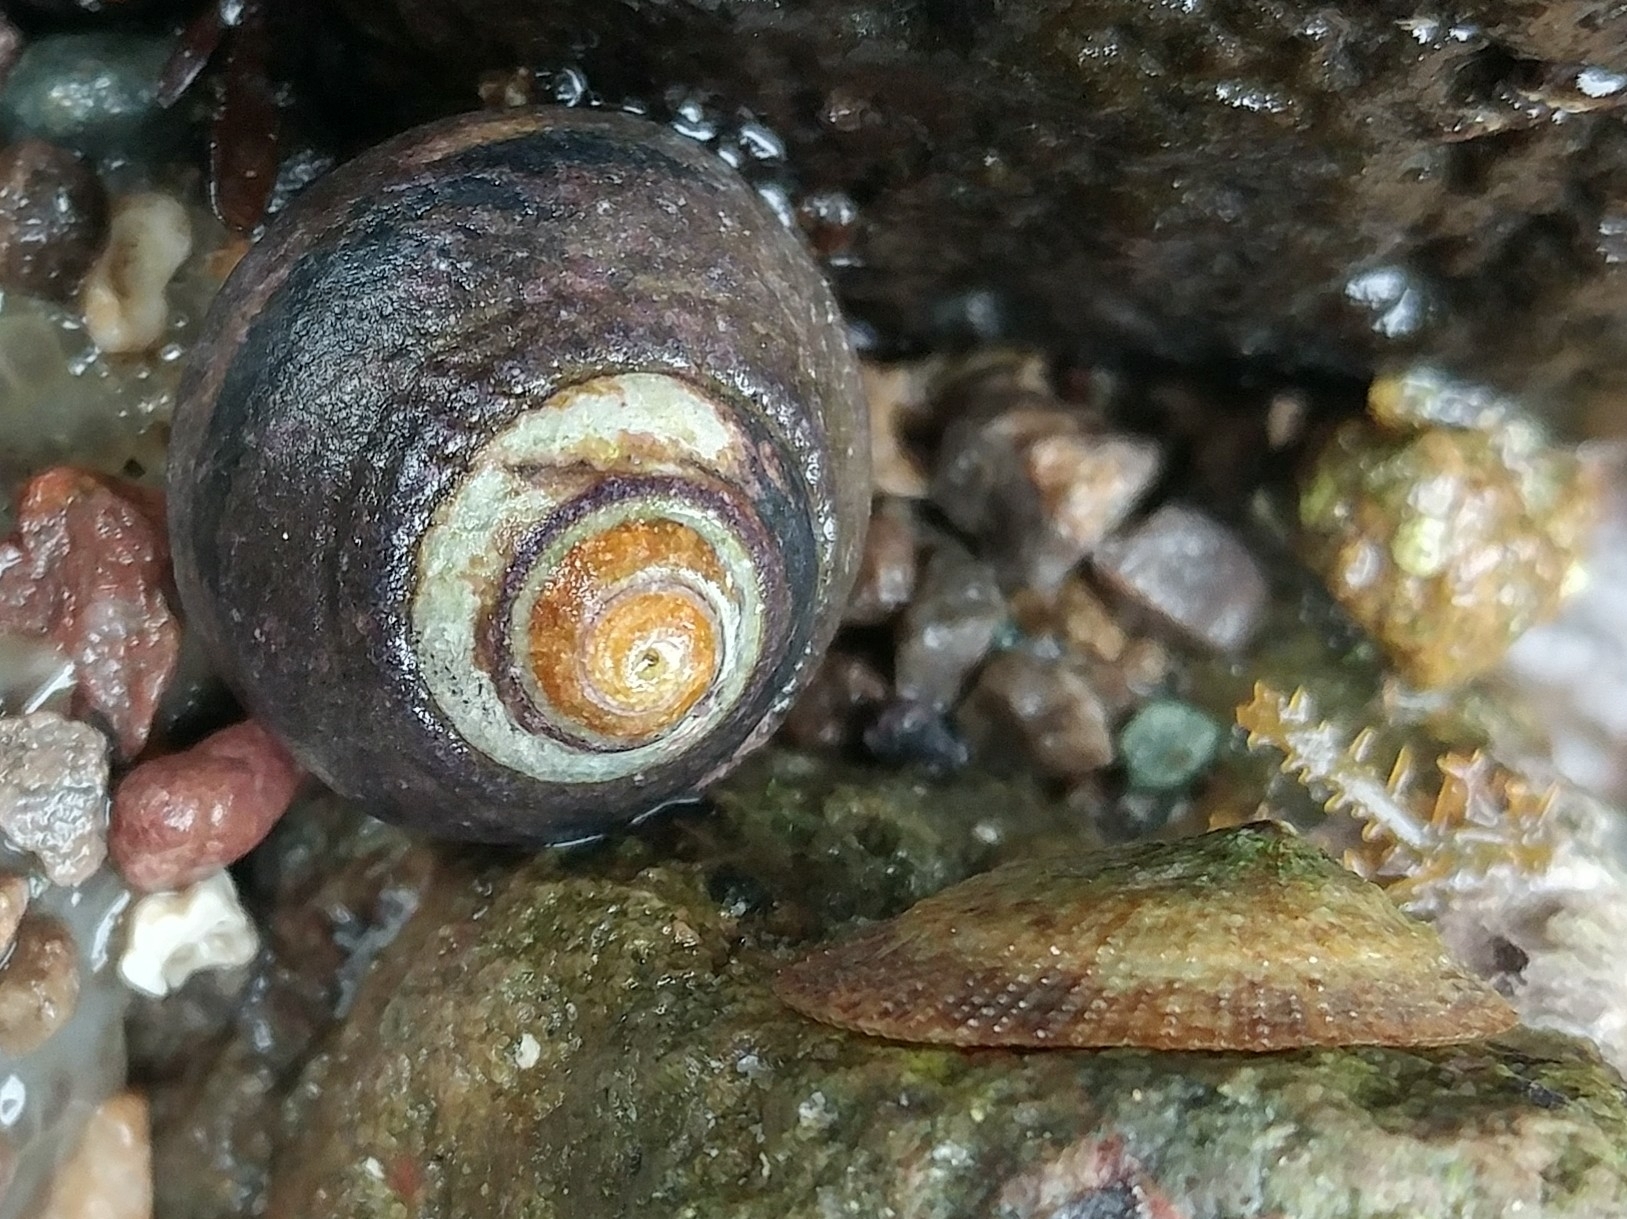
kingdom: Animalia
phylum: Mollusca
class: Gastropoda
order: Trochida
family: Tegulidae
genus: Tegula
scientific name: Tegula funebralis
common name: Black tegula
